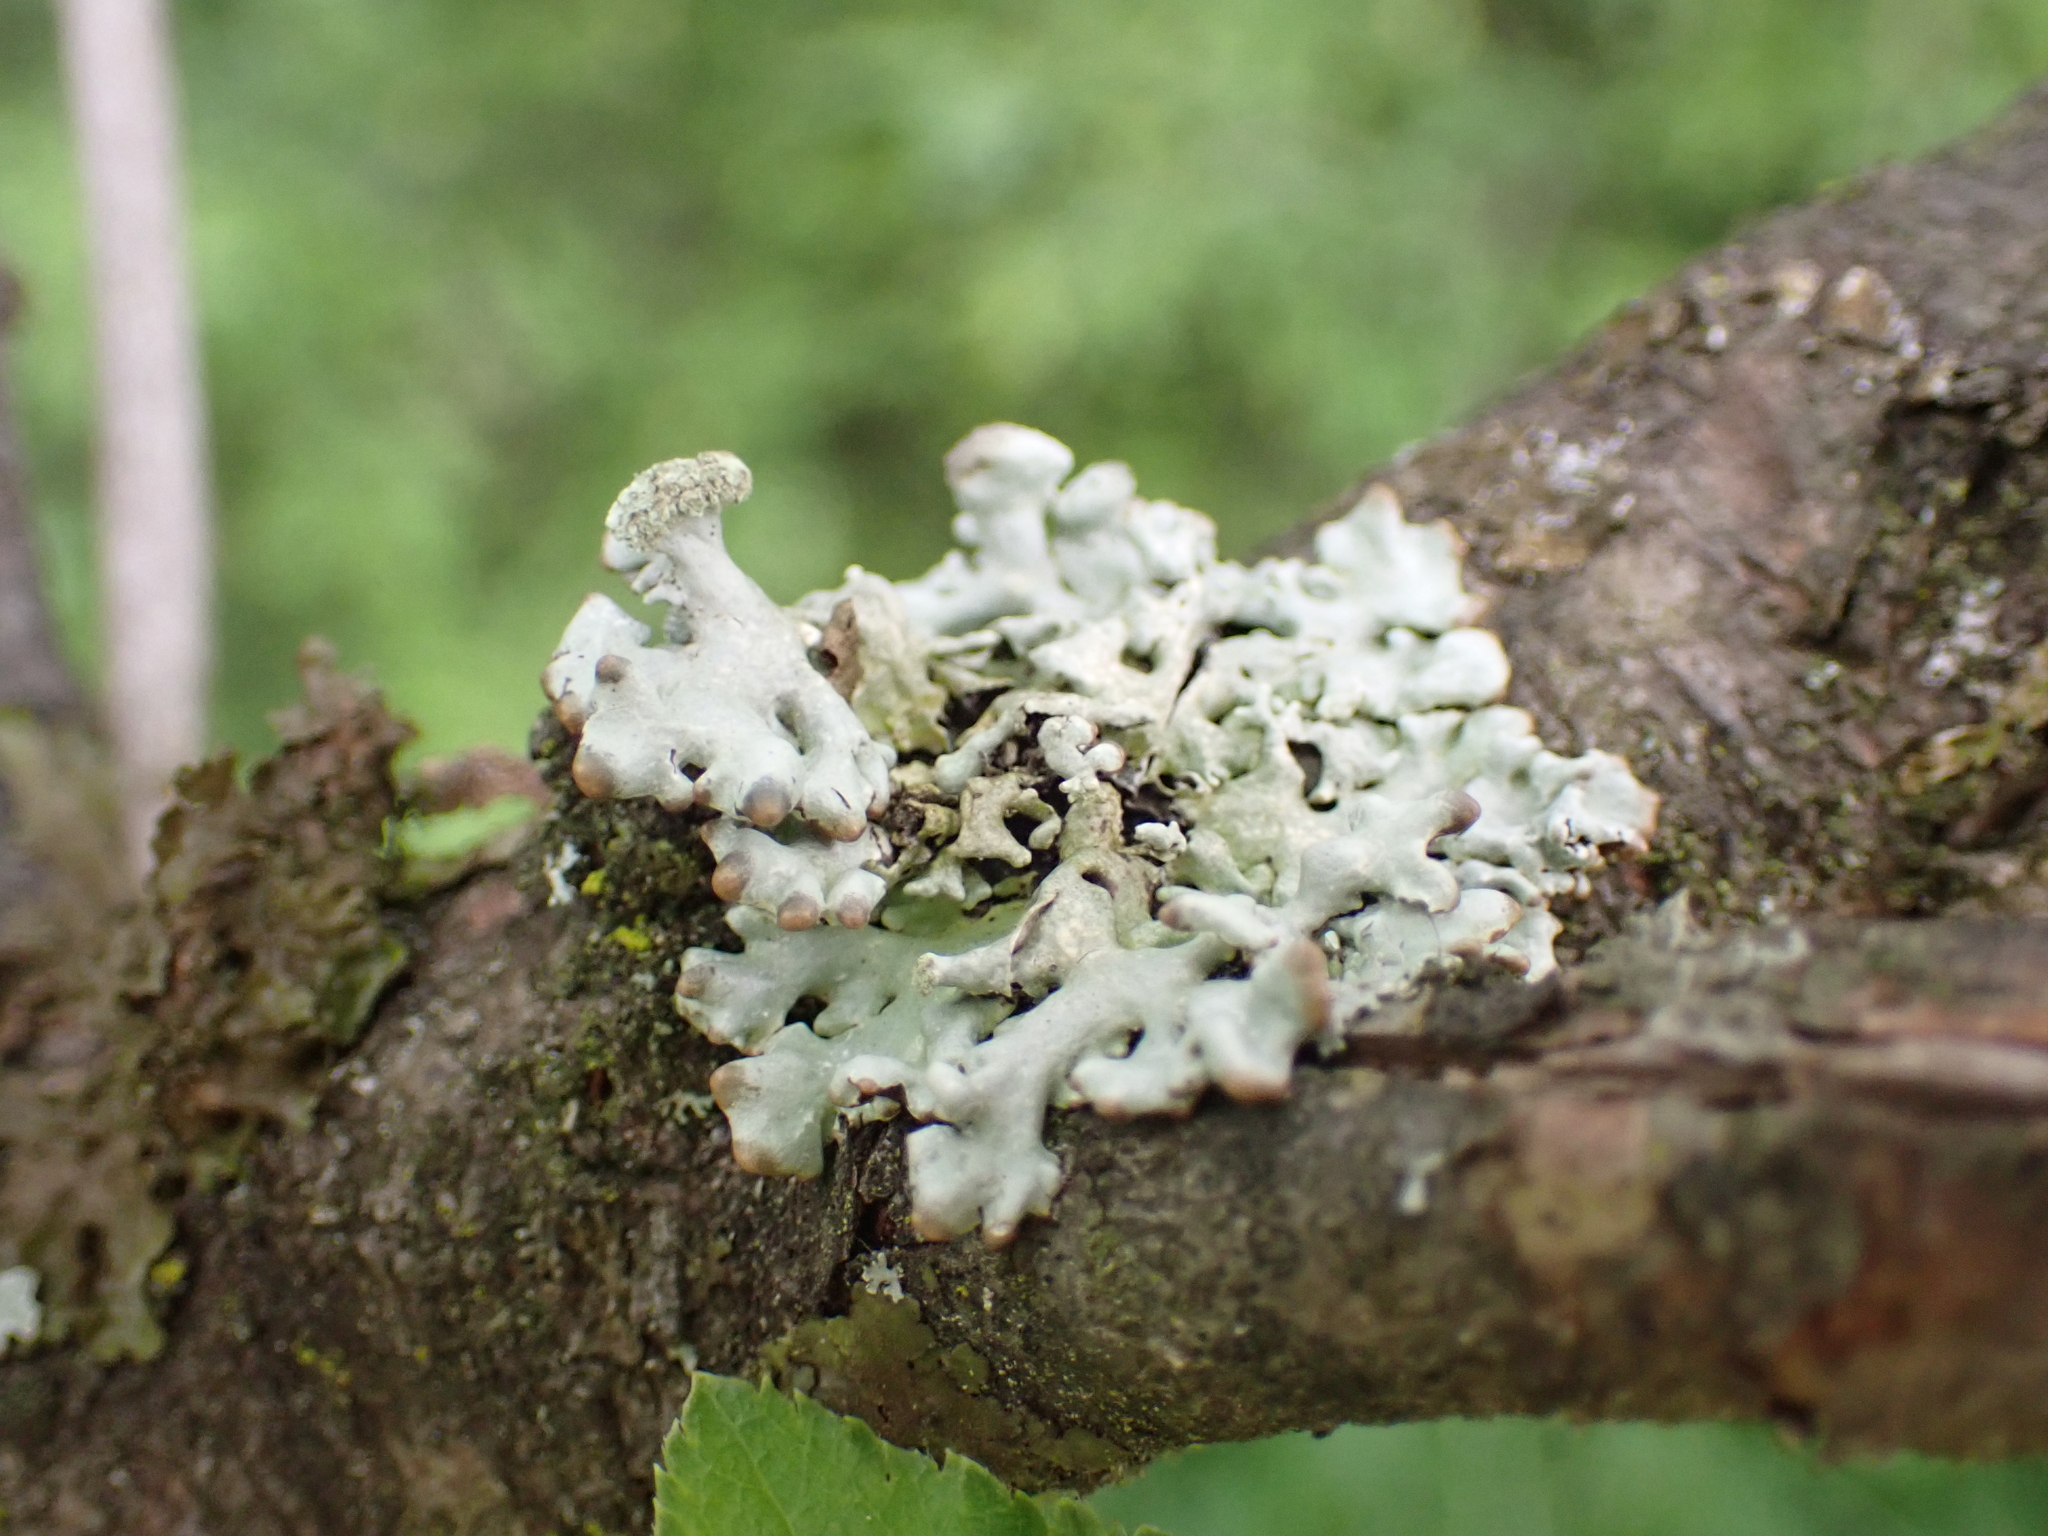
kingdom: Fungi
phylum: Ascomycota
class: Lecanoromycetes
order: Lecanorales
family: Parmeliaceae
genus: Hypogymnia
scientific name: Hypogymnia tubulosa
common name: Powder-headed tube lichen
